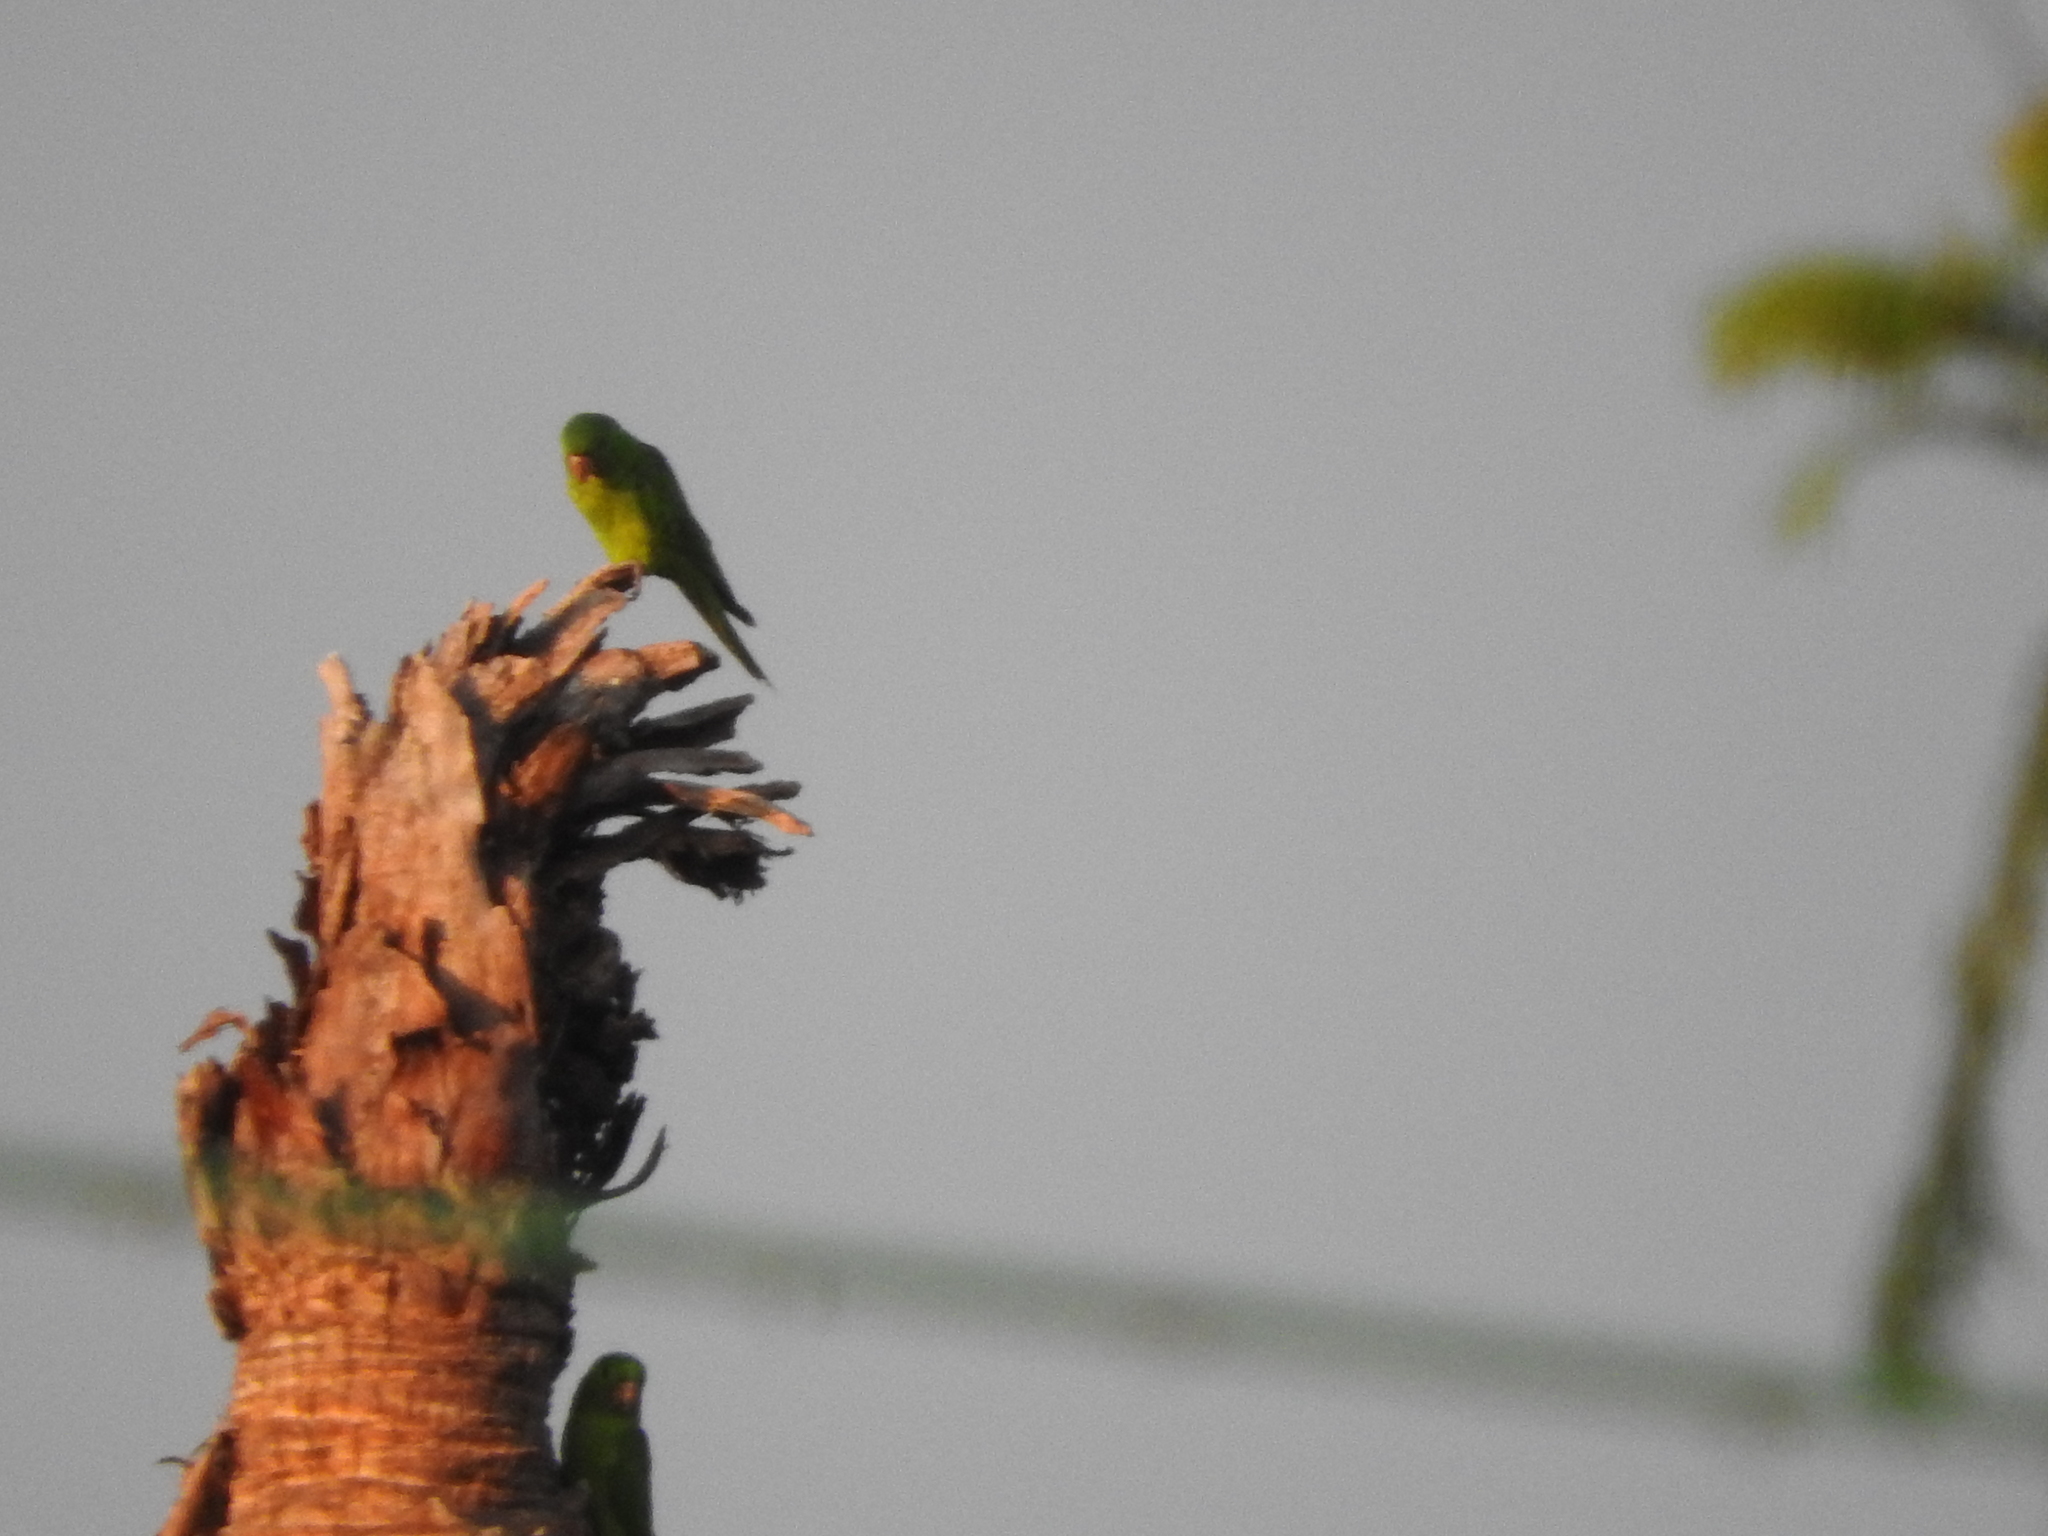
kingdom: Animalia
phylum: Chordata
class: Aves
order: Psittaciformes
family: Psittacidae
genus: Aratinga
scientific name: Aratinga holochlora
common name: Green parakeet
